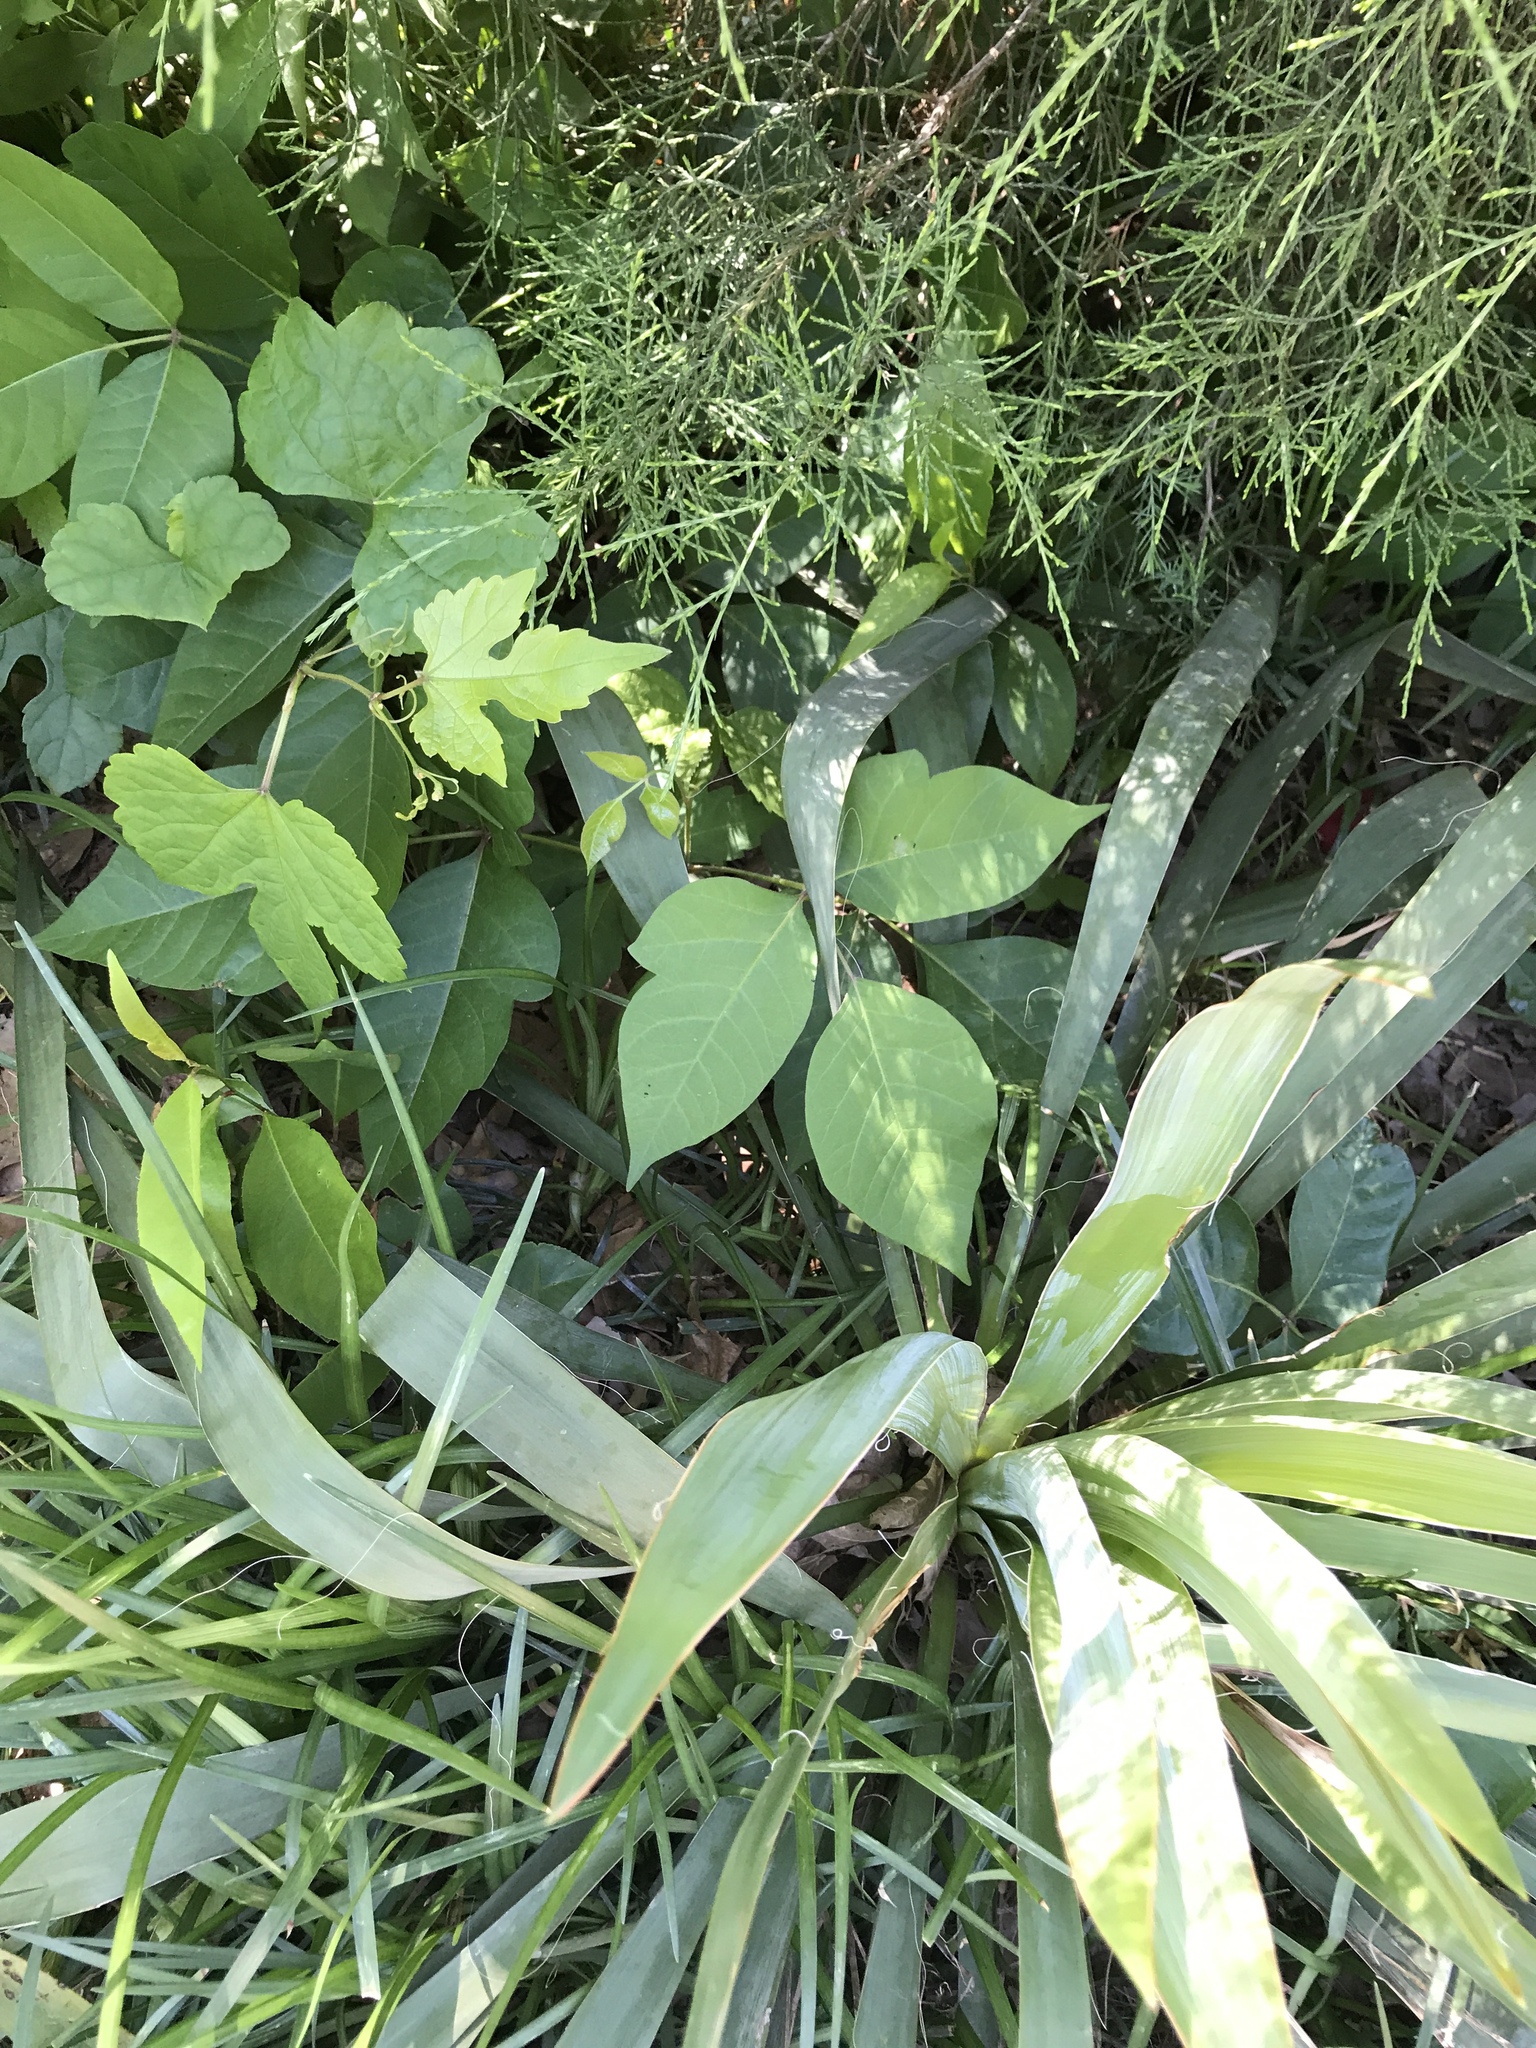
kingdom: Plantae
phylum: Tracheophyta
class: Magnoliopsida
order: Sapindales
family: Anacardiaceae
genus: Toxicodendron
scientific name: Toxicodendron radicans
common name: Poison ivy
